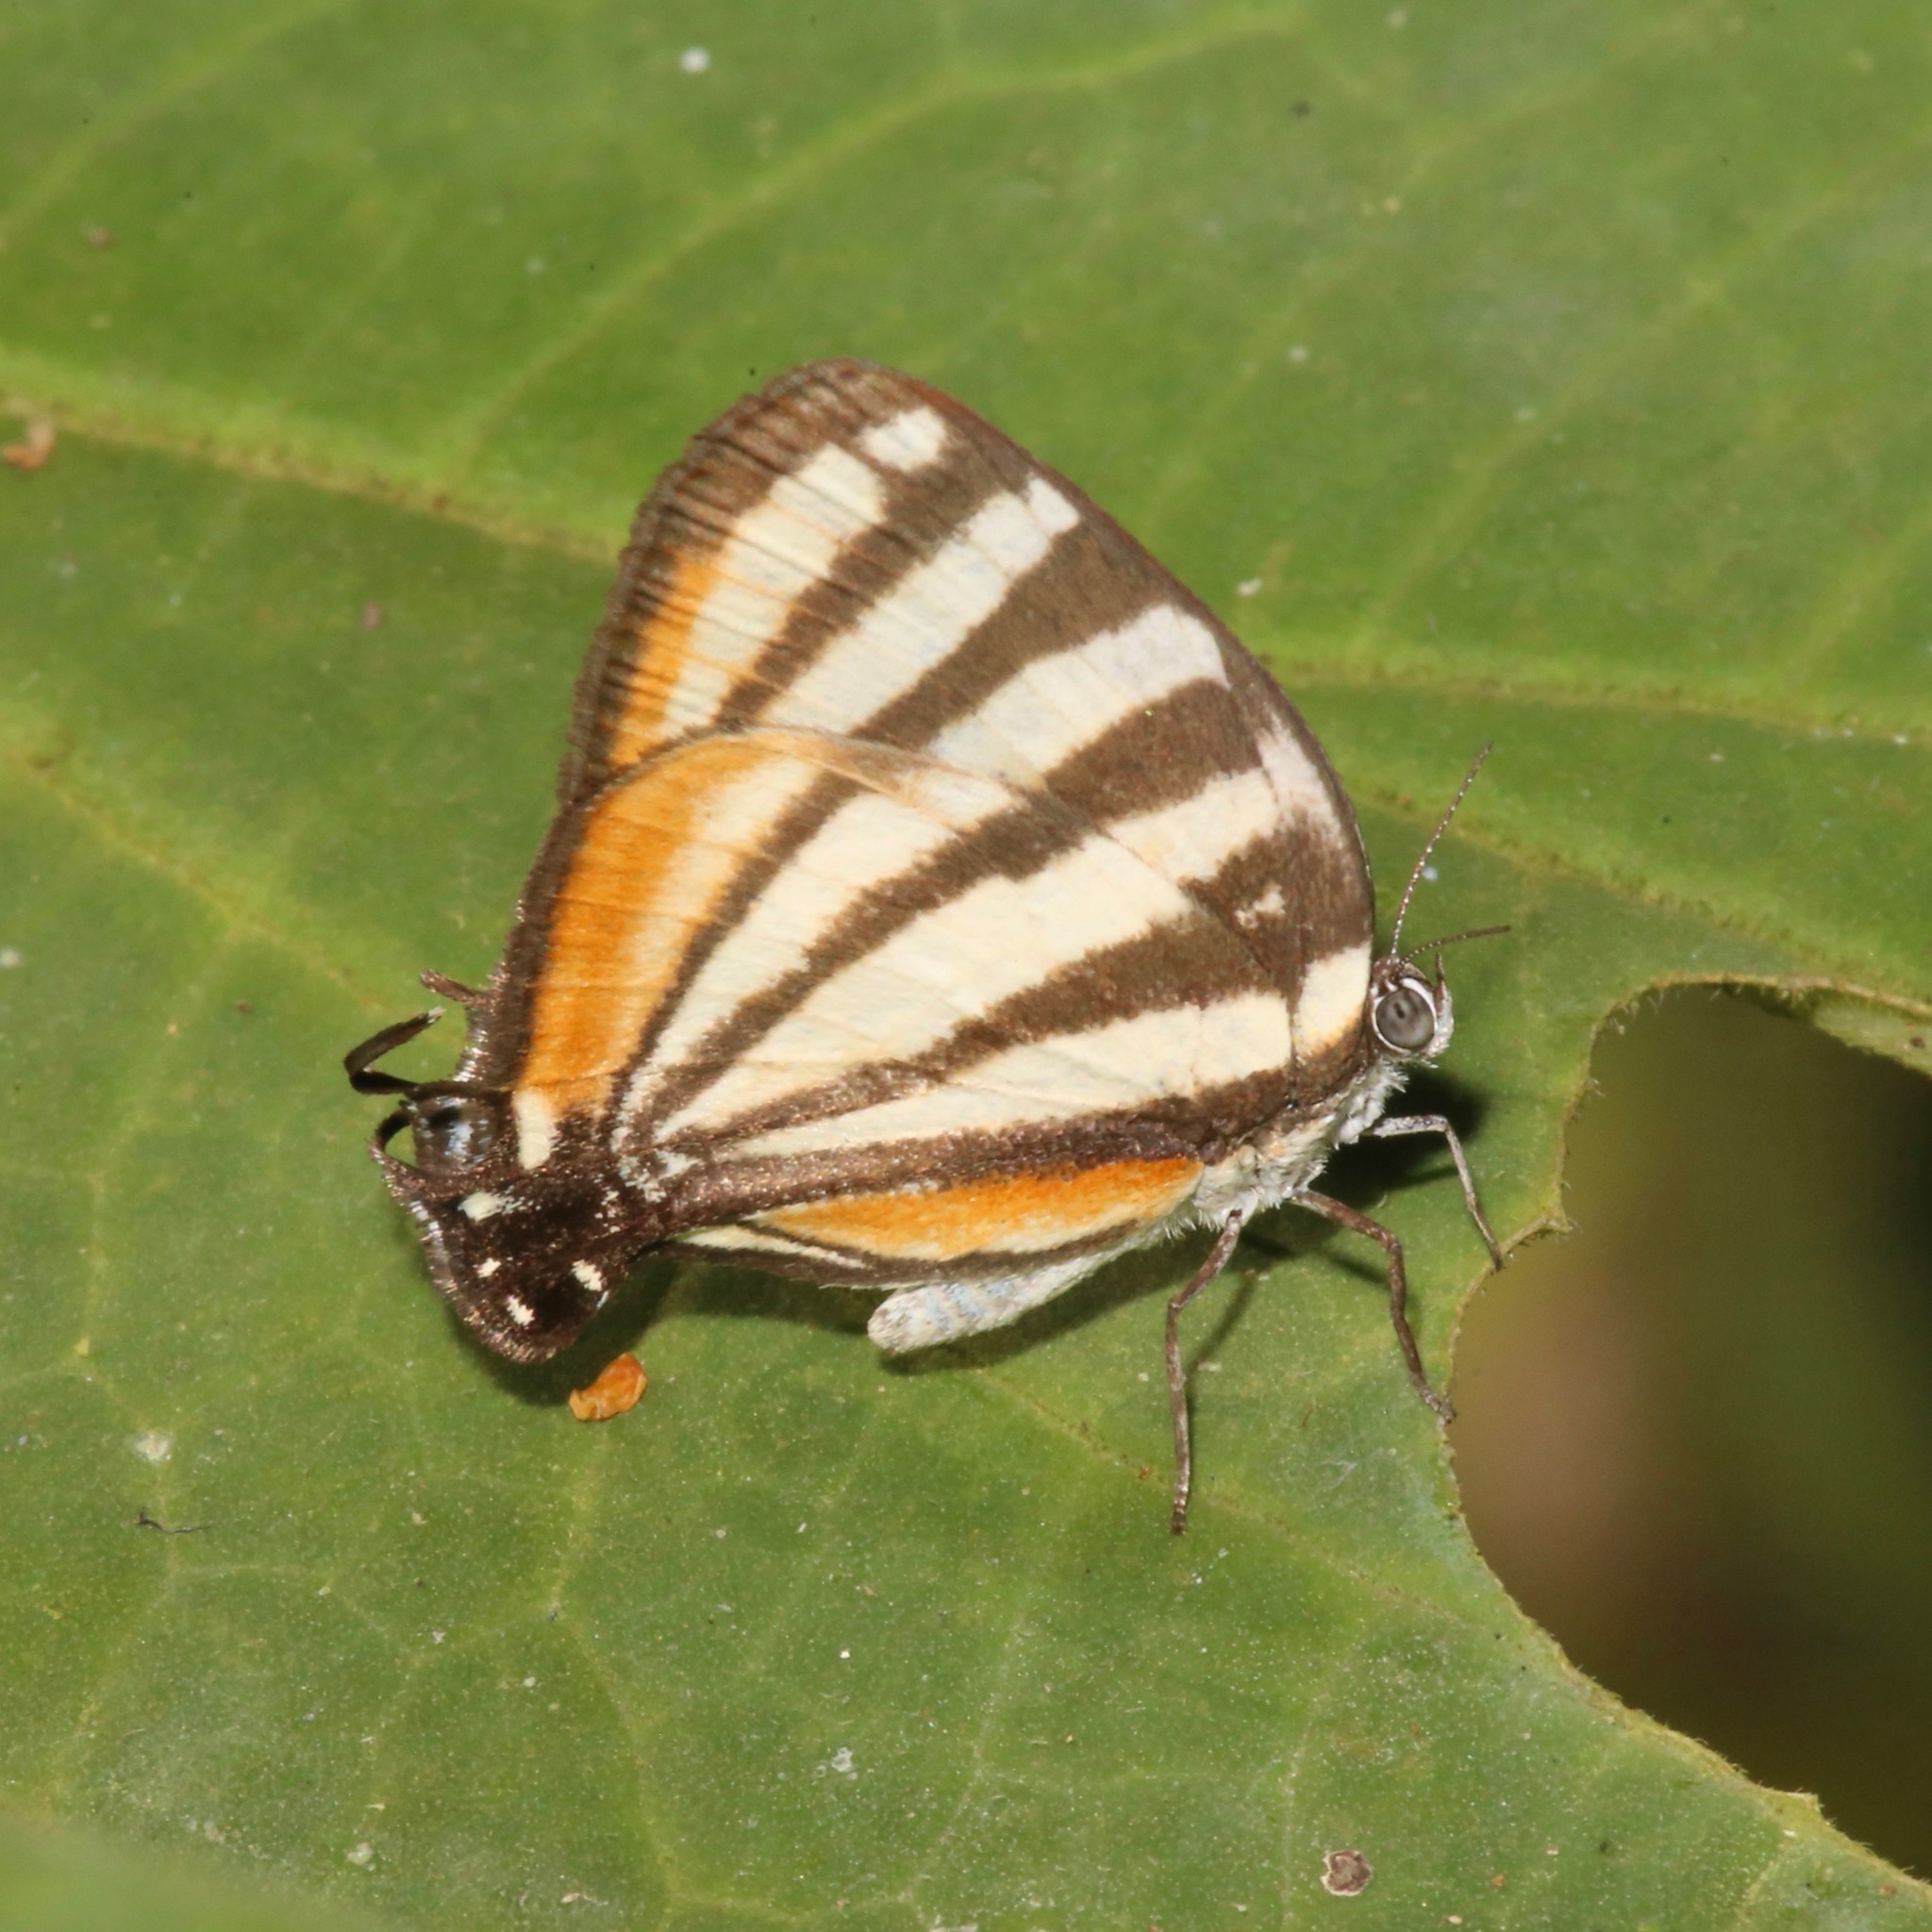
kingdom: Animalia
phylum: Arthropoda
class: Insecta
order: Lepidoptera
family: Lycaenidae
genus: Arawacus
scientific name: Arawacus lincoides
